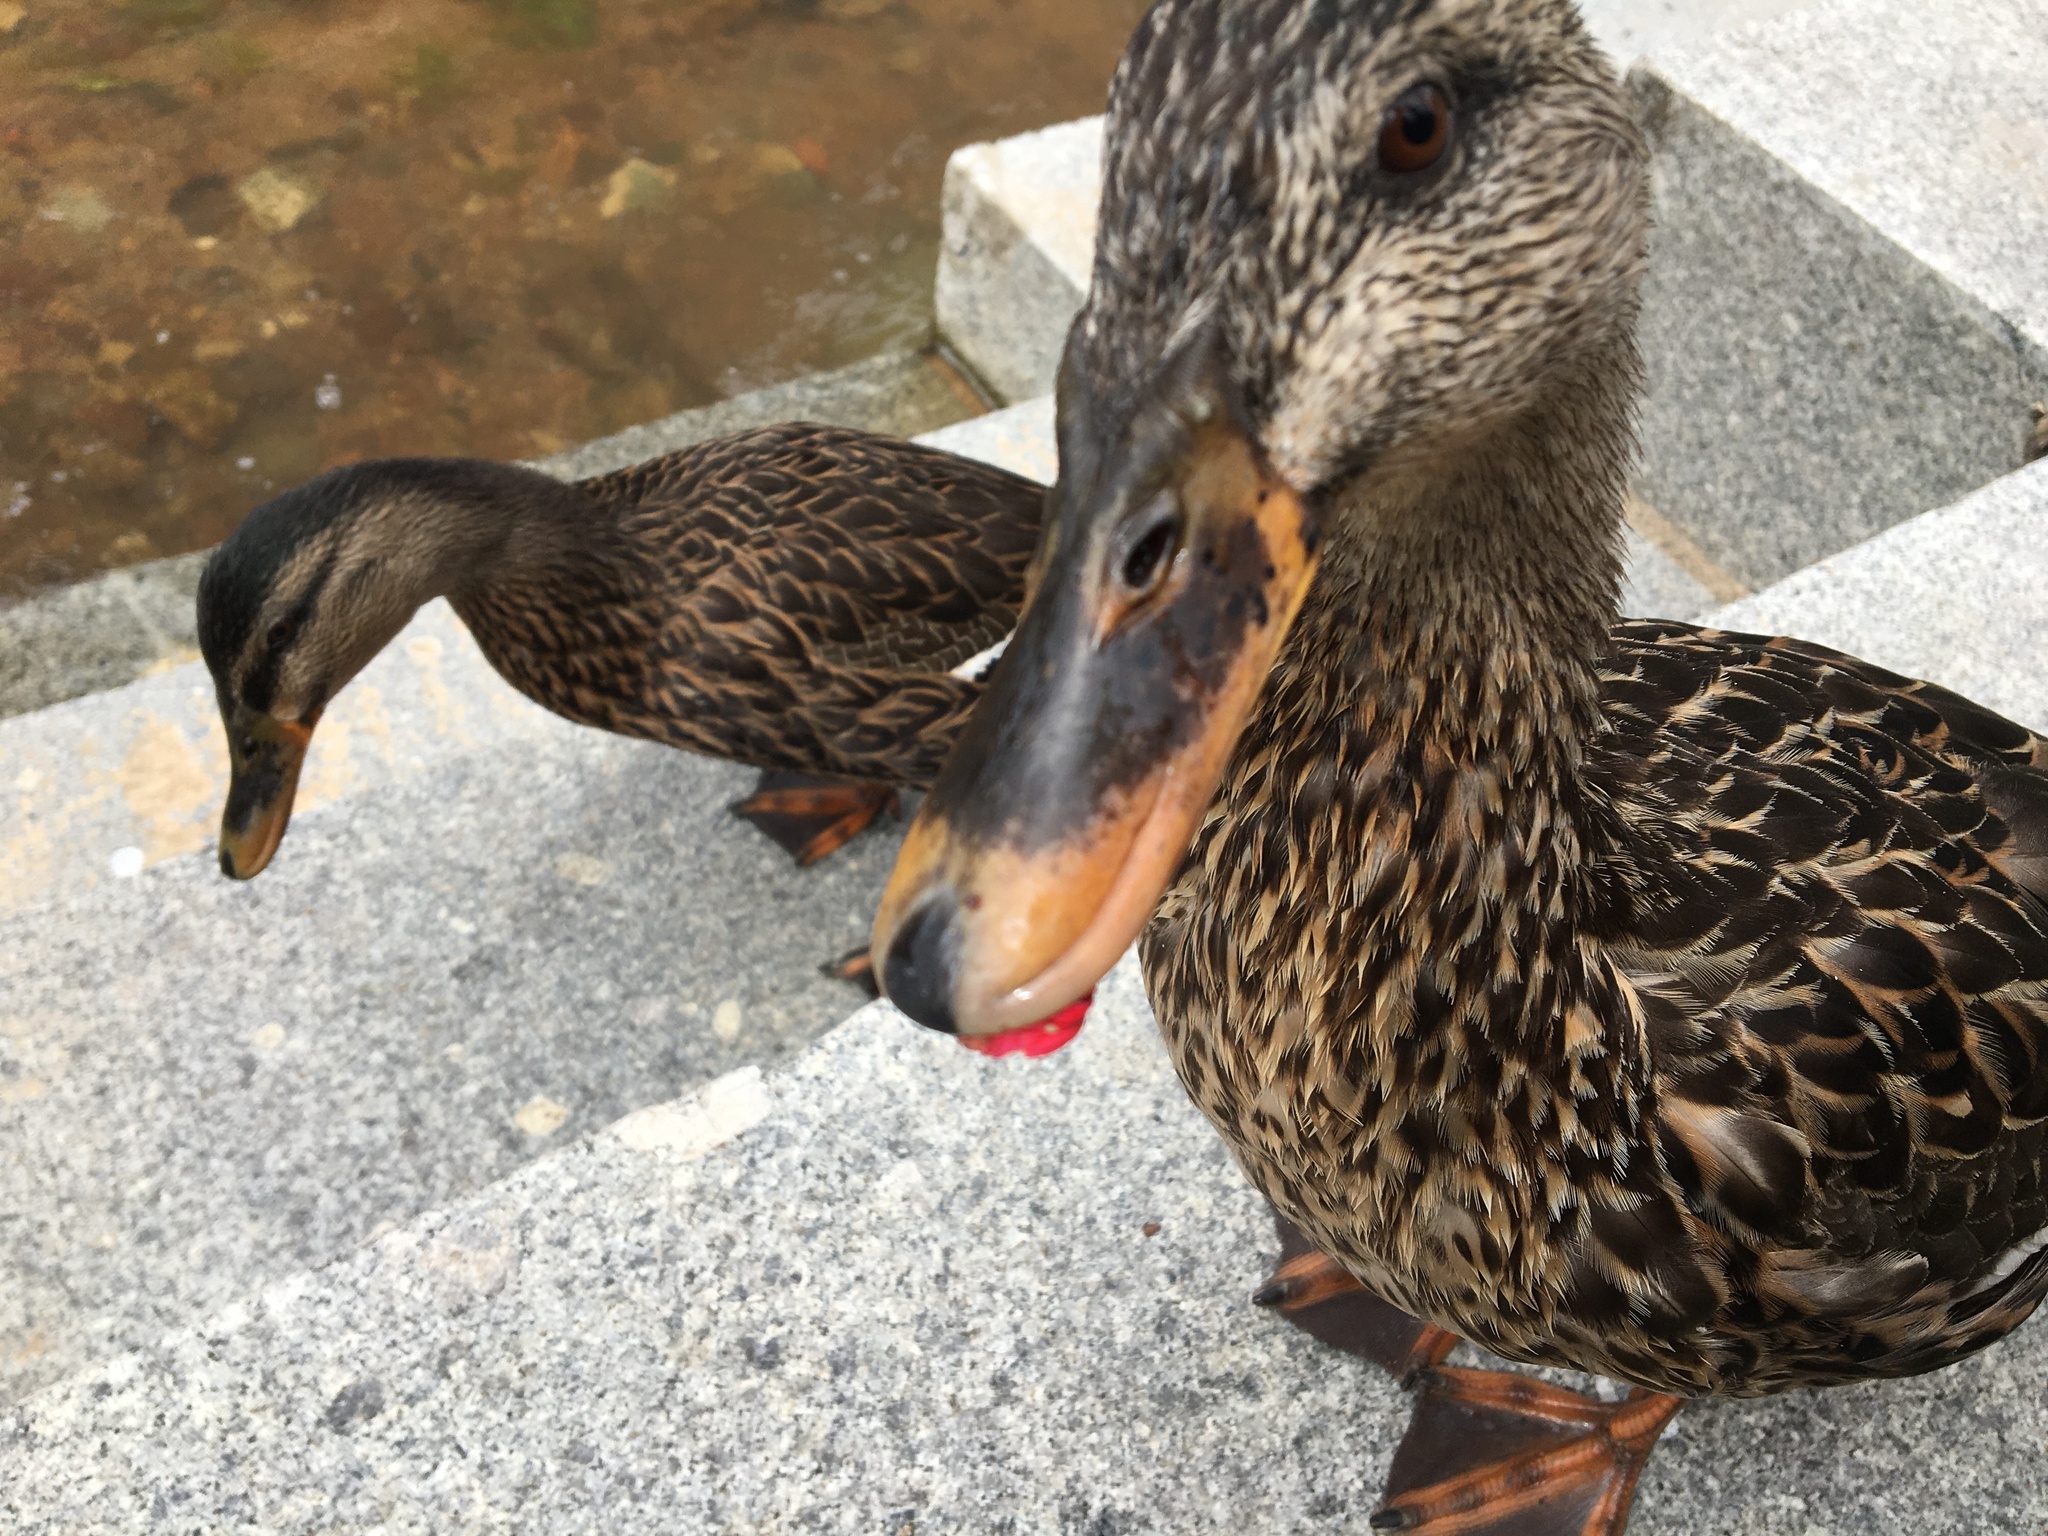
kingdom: Animalia
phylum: Chordata
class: Aves
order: Anseriformes
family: Anatidae
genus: Anas
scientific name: Anas platyrhynchos
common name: Mallard
